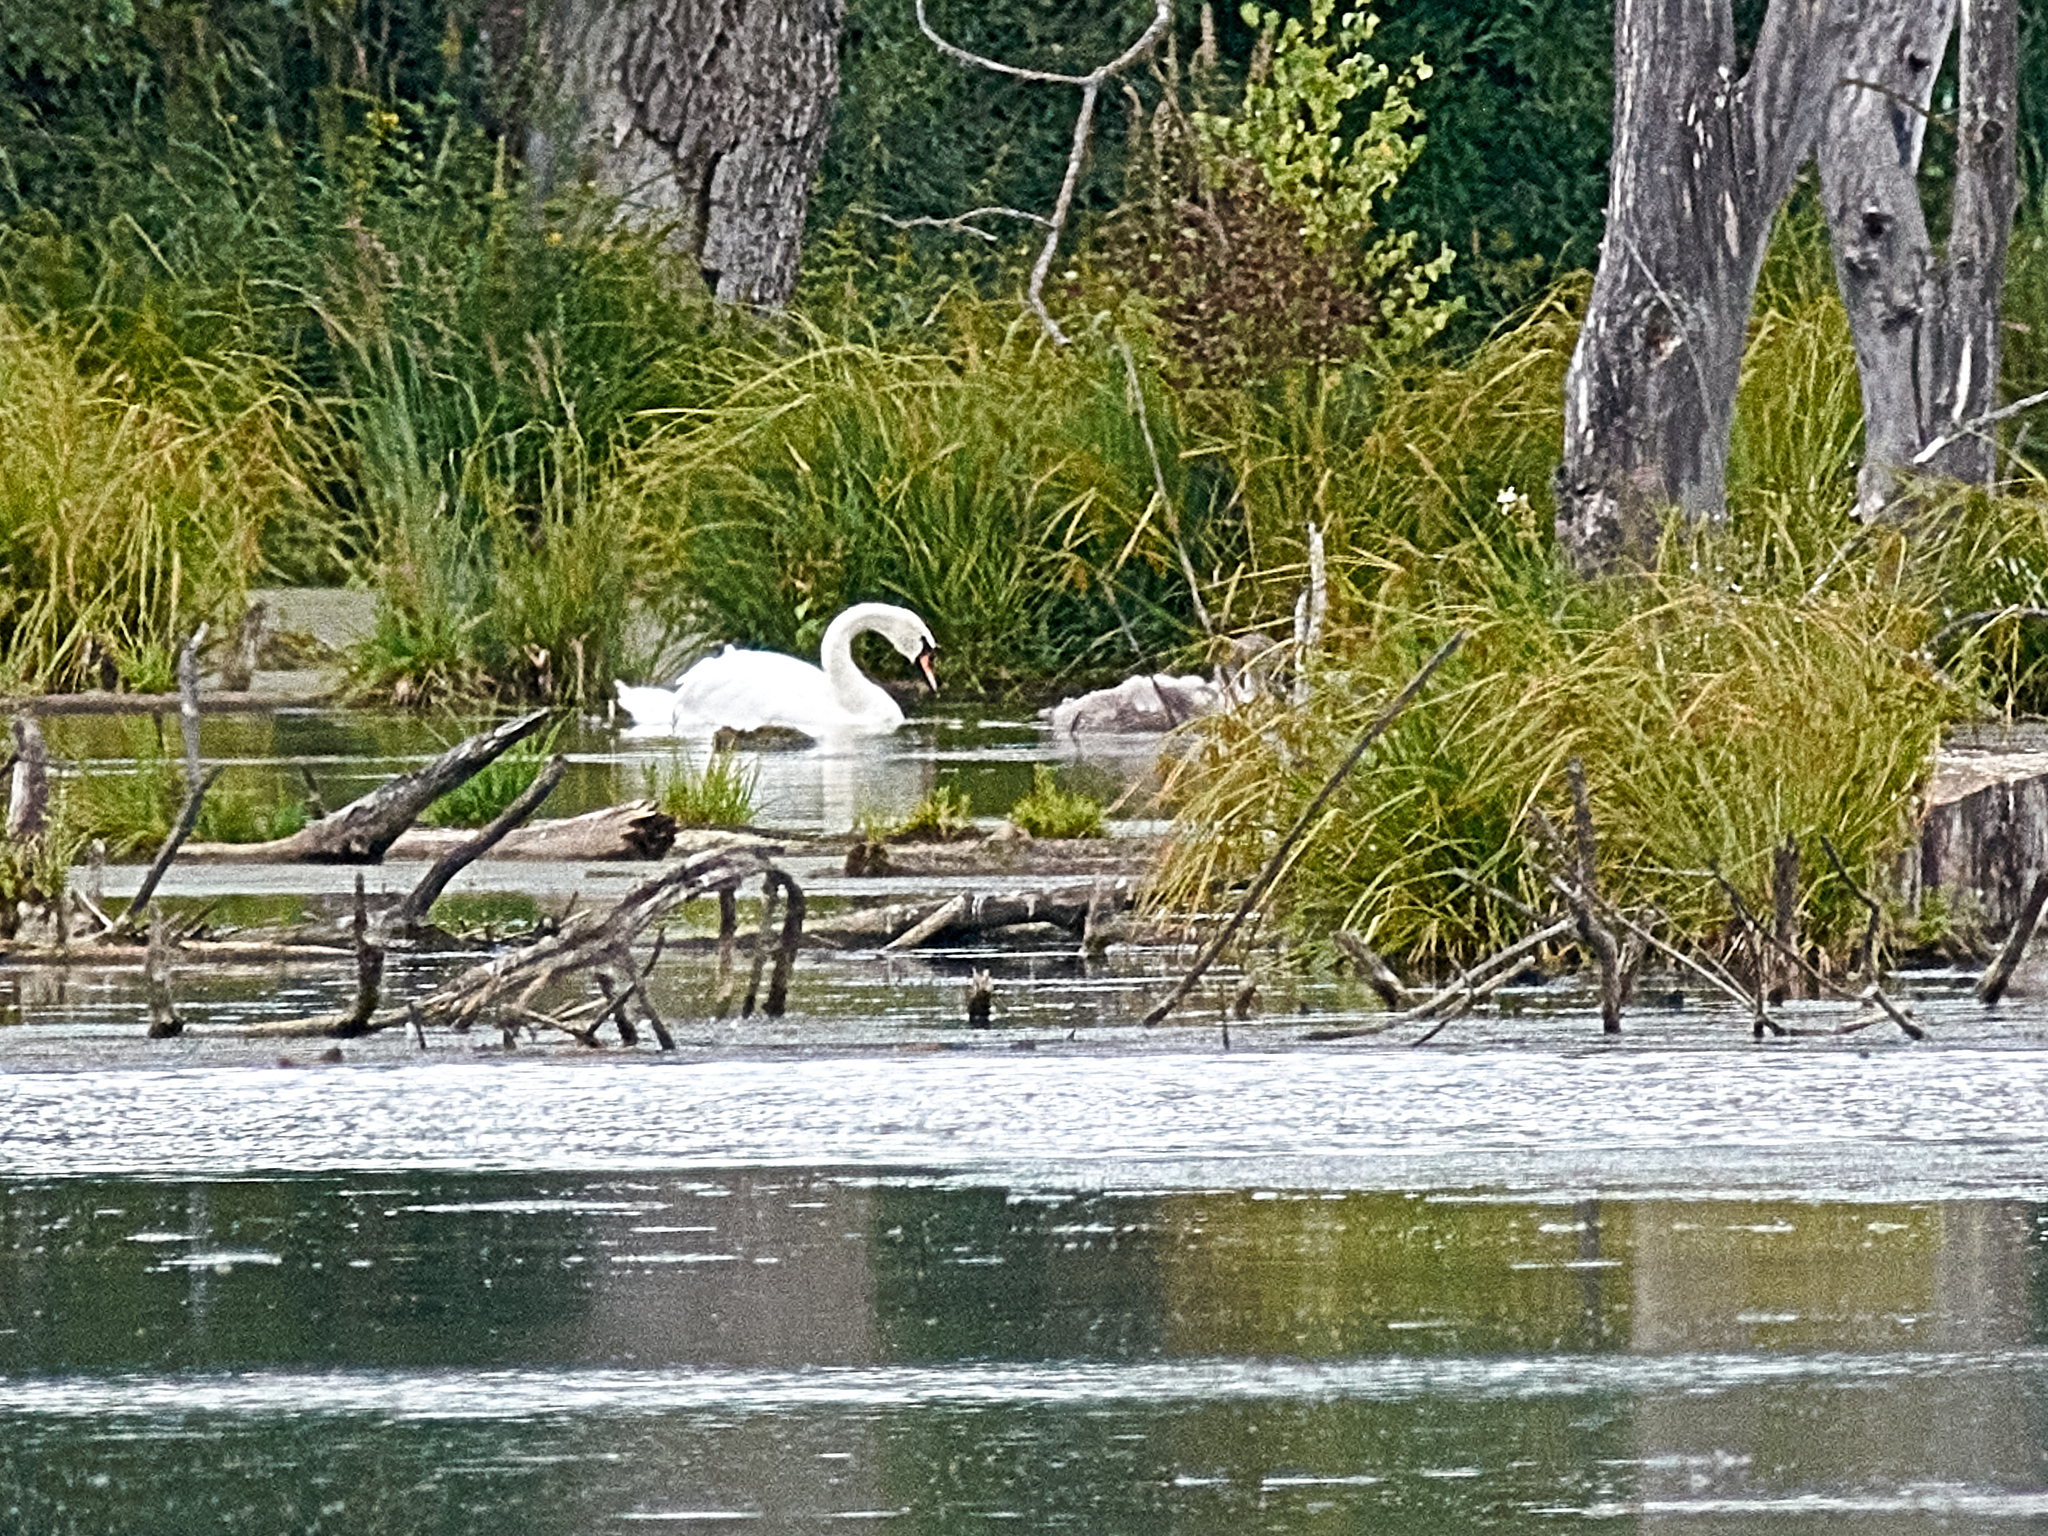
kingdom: Animalia
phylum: Chordata
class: Aves
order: Anseriformes
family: Anatidae
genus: Cygnus
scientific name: Cygnus olor
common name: Mute swan
